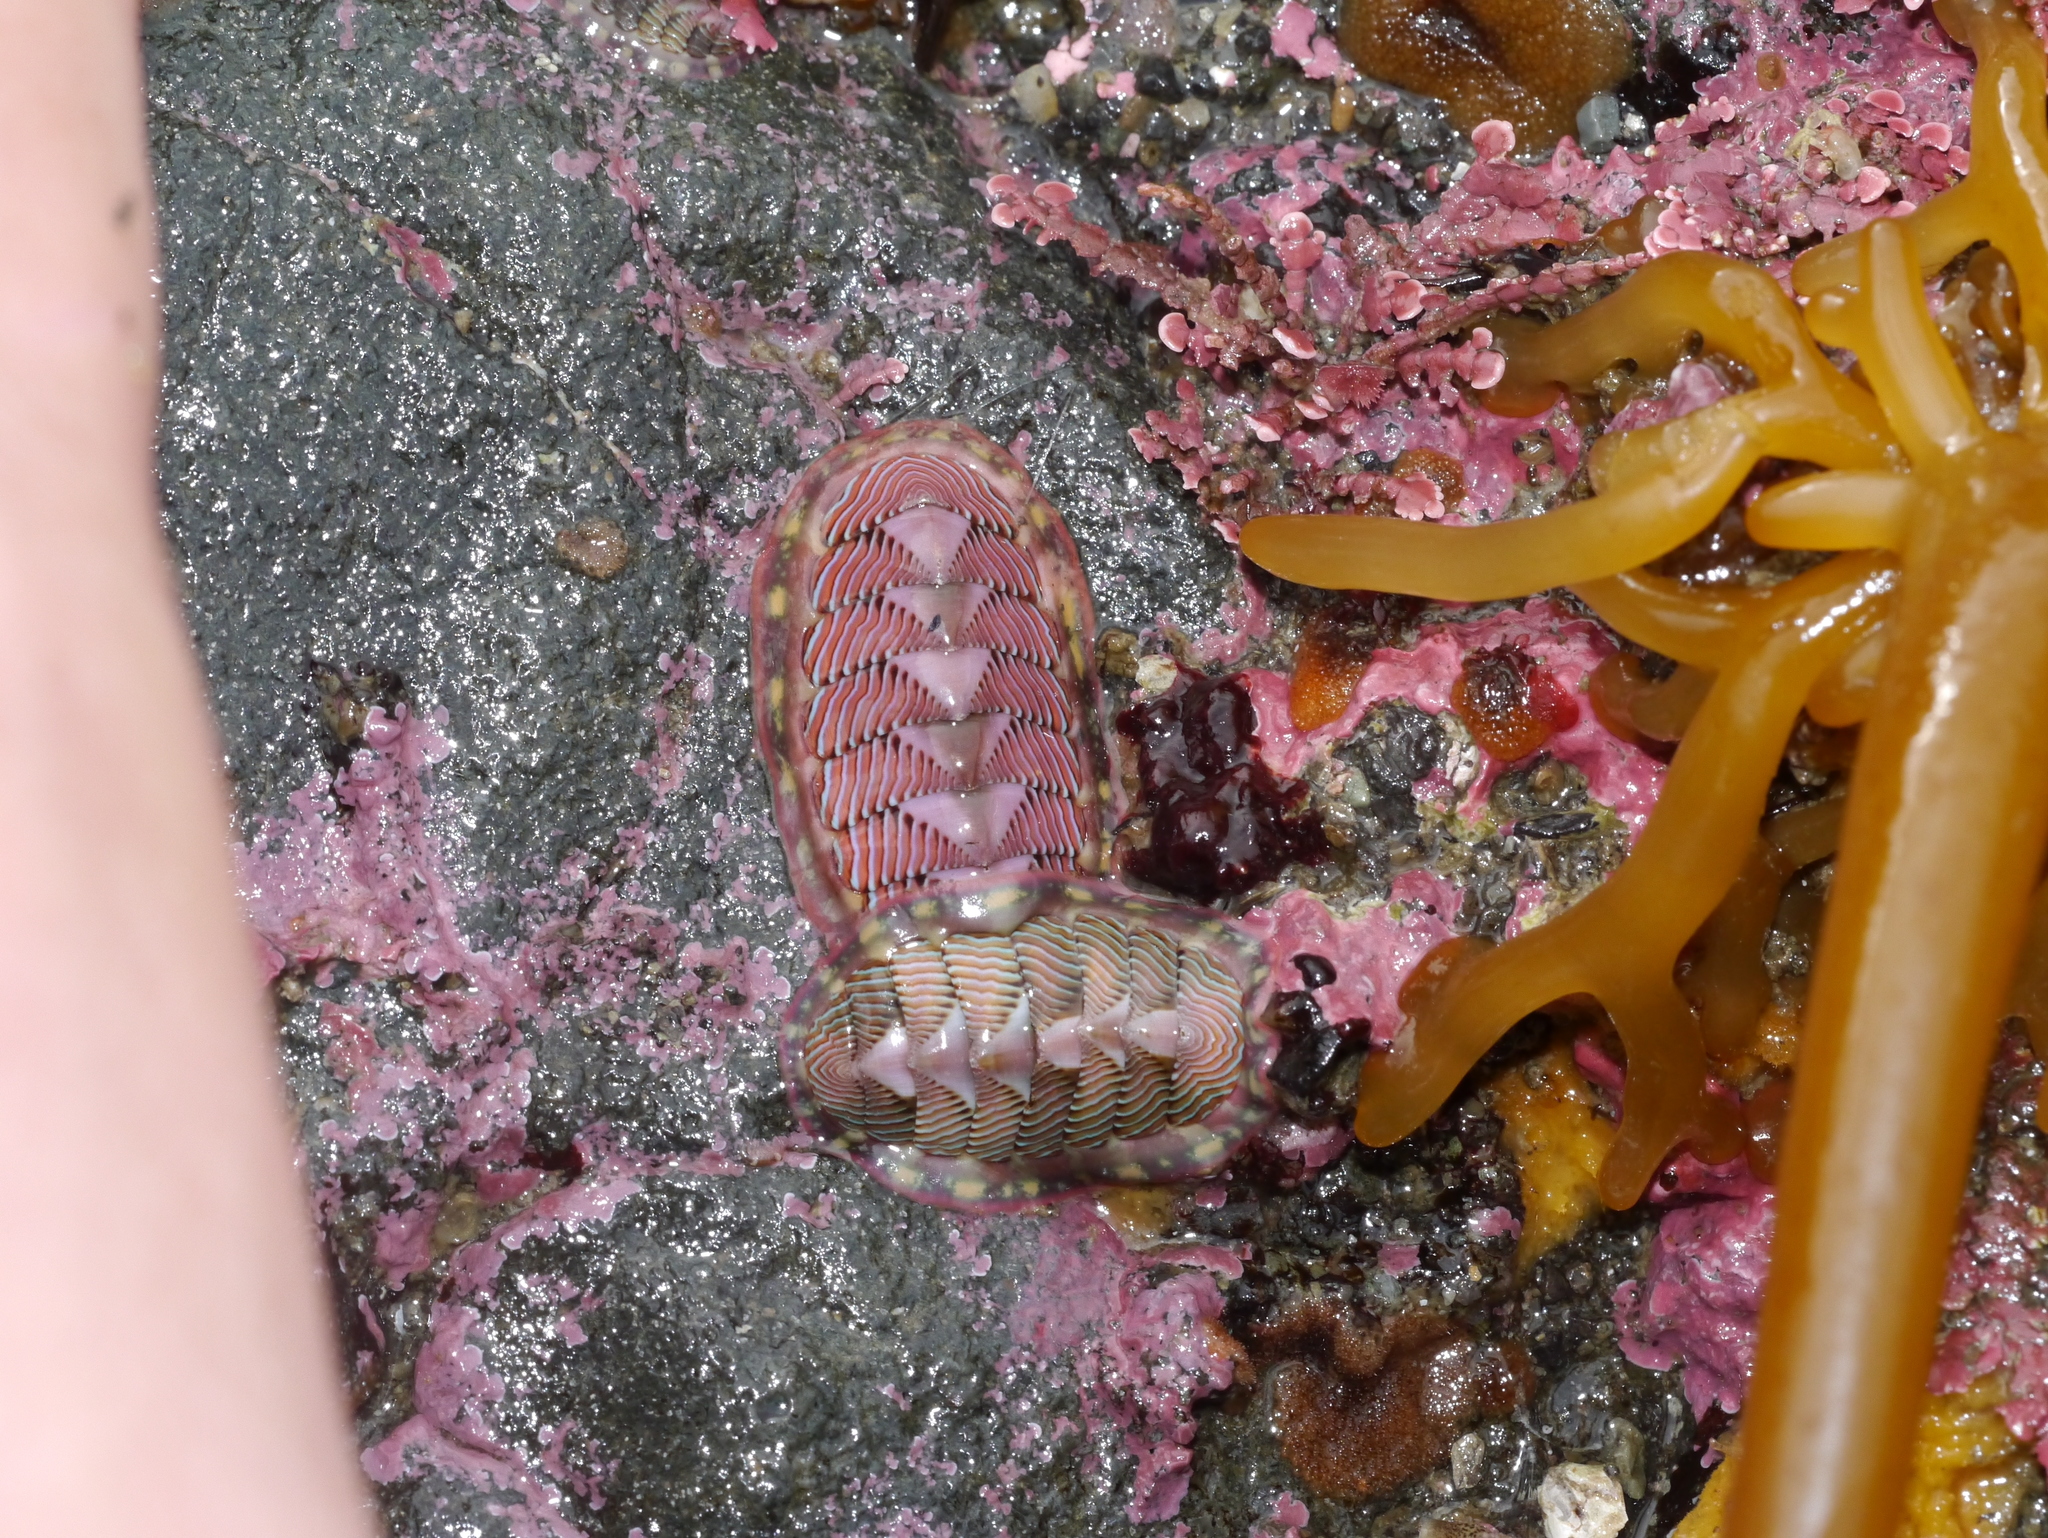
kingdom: Animalia
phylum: Mollusca
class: Polyplacophora
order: Chitonida
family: Tonicellidae
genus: Tonicella
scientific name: Tonicella lineata
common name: Lined chiton
